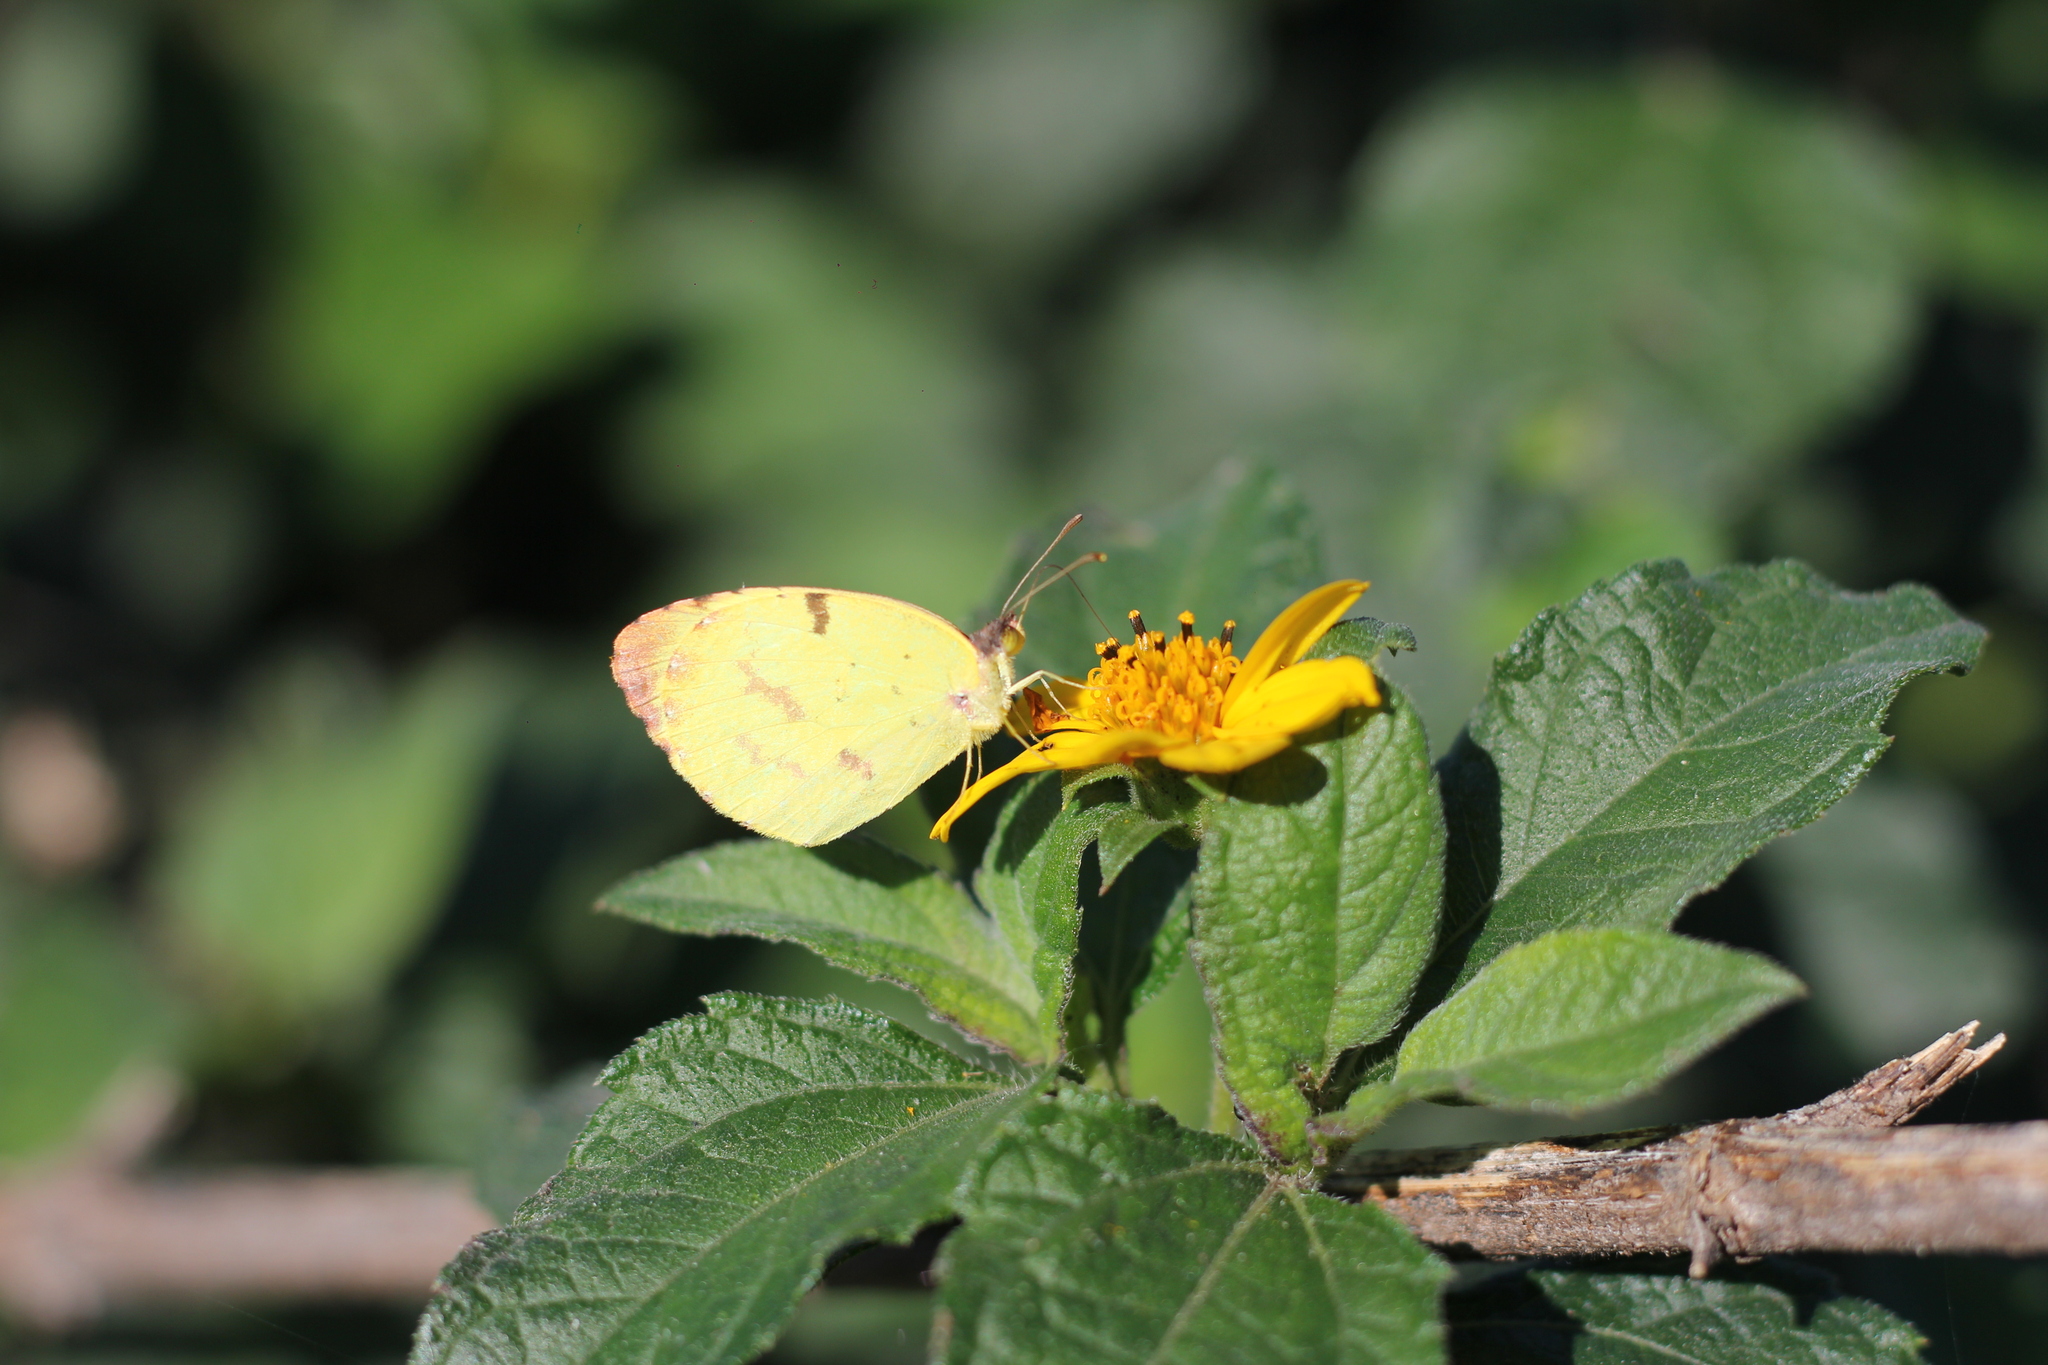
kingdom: Animalia
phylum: Arthropoda
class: Insecta
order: Lepidoptera
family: Pieridae
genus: Teriocolias
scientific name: Teriocolias
